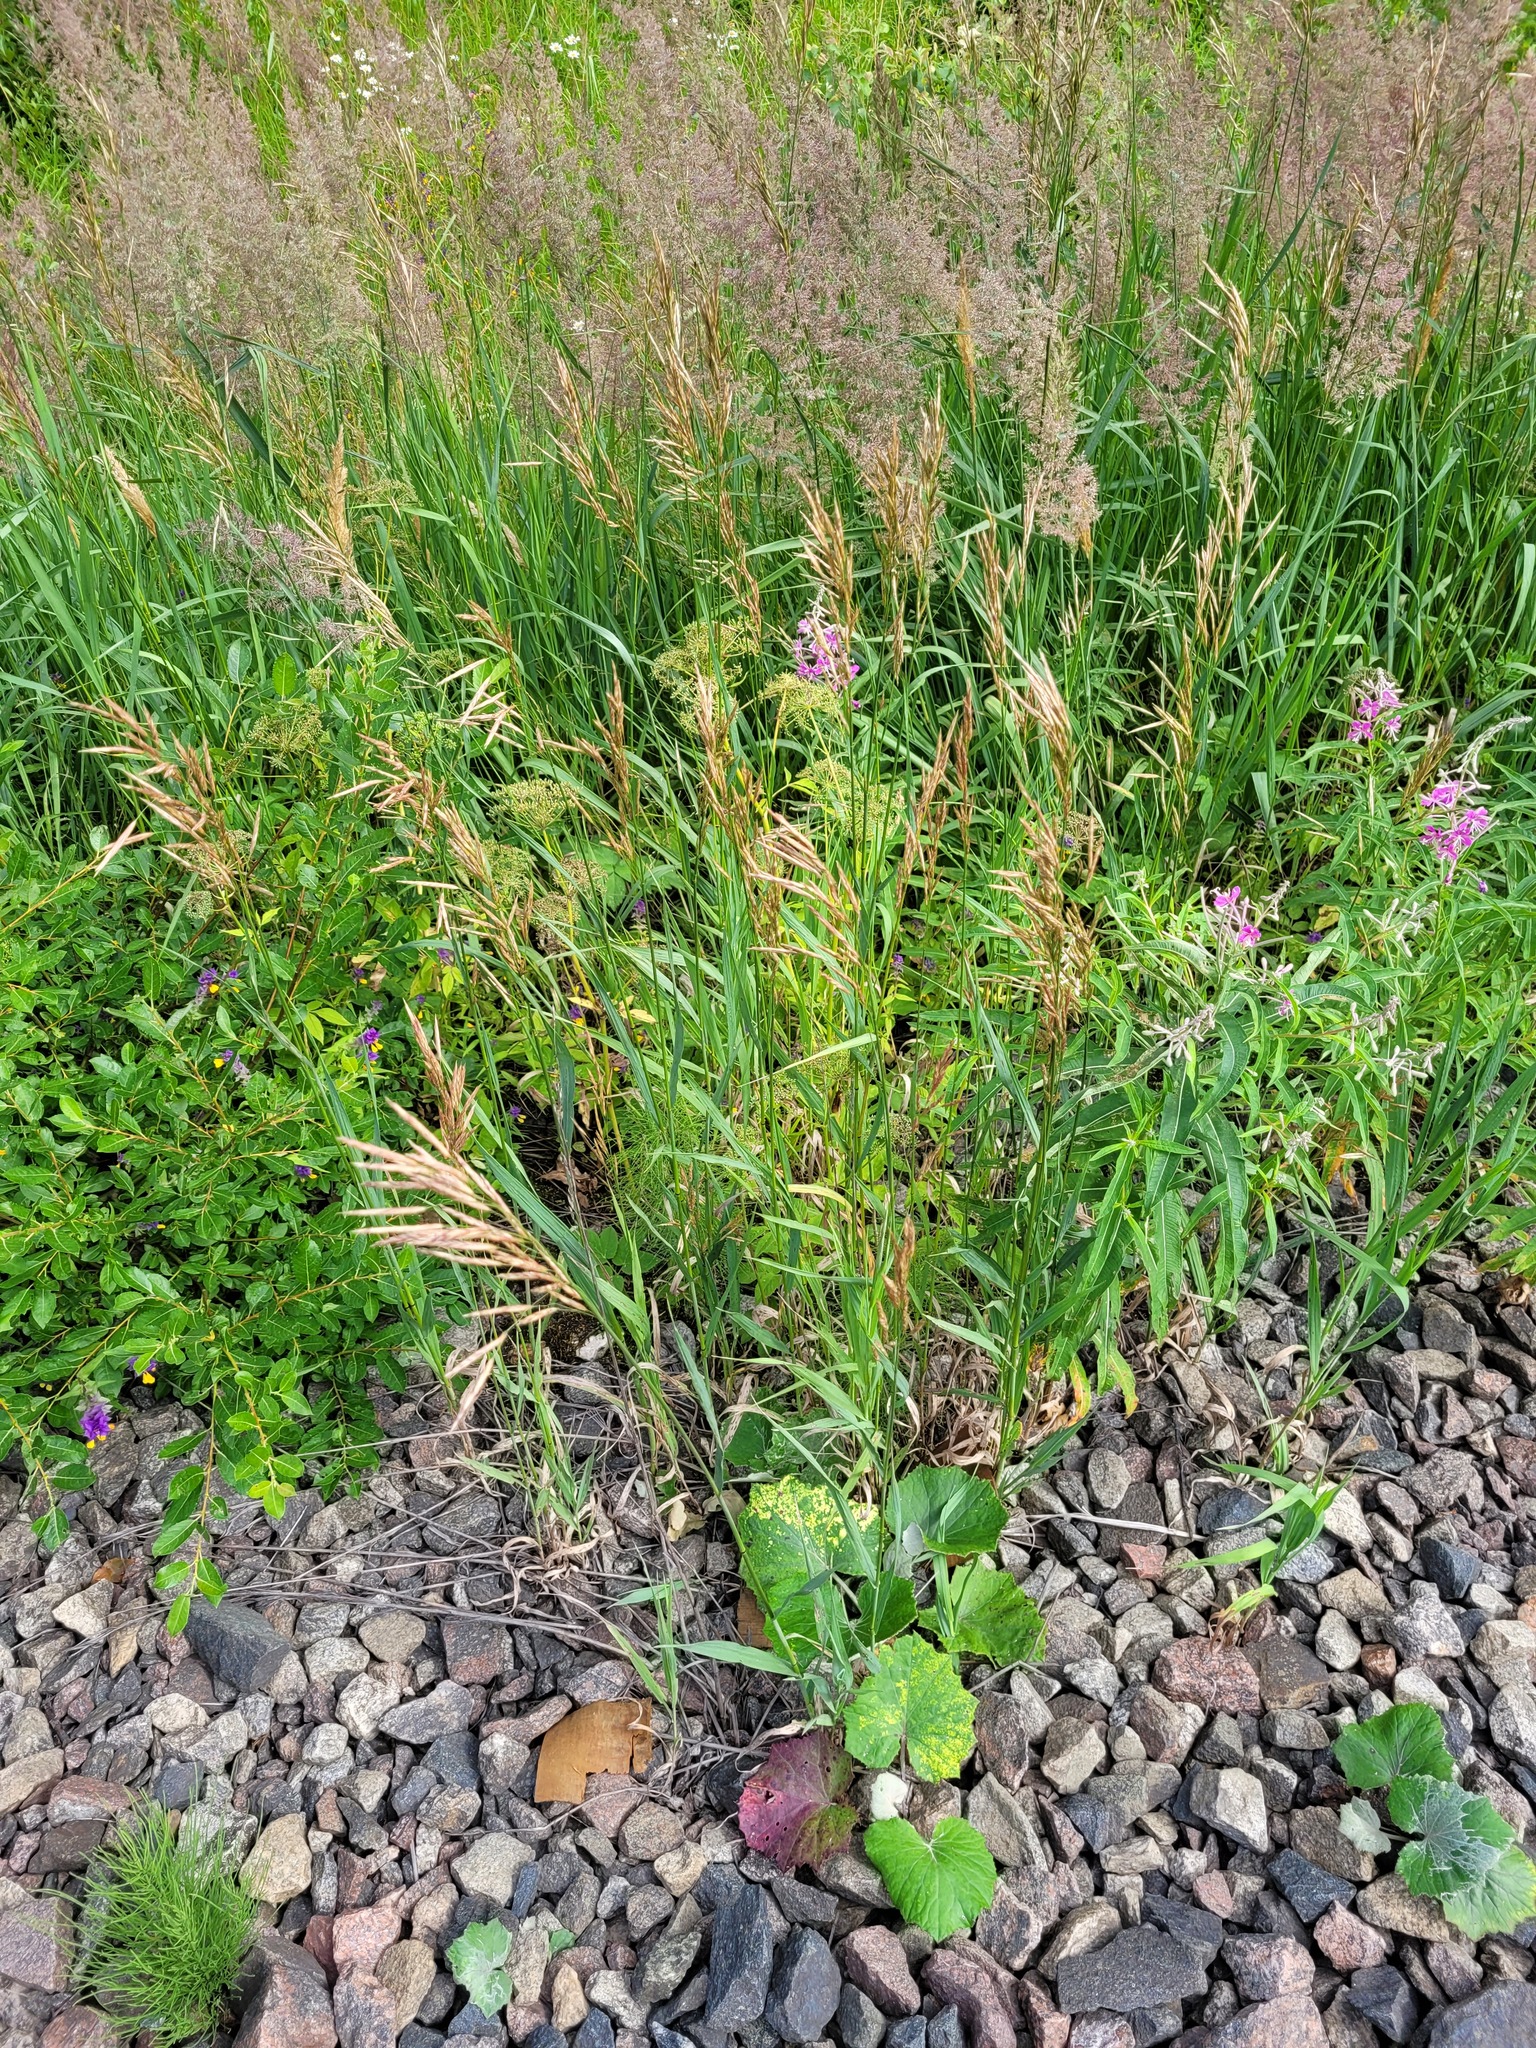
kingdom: Plantae
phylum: Tracheophyta
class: Liliopsida
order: Poales
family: Poaceae
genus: Bromus
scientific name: Bromus inermis
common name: Smooth brome
